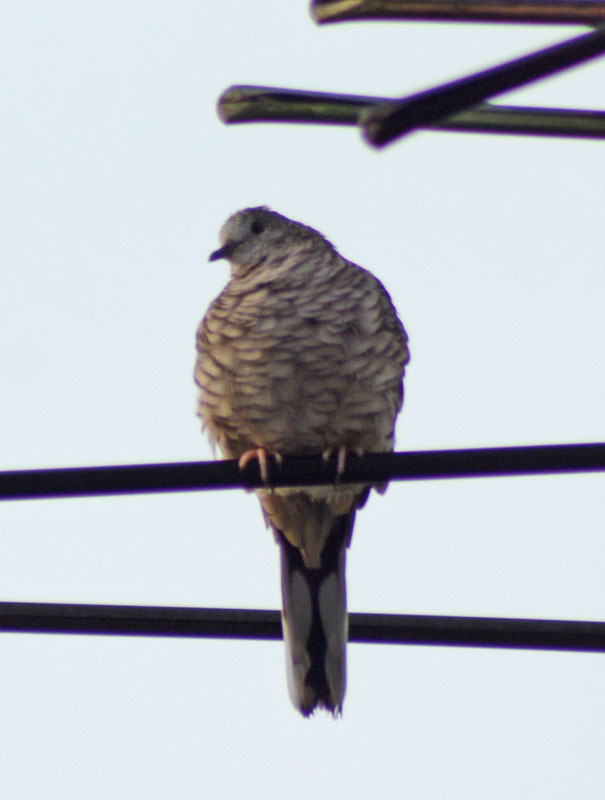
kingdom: Animalia
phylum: Chordata
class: Aves
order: Columbiformes
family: Columbidae
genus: Columbina
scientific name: Columbina inca
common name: Inca dove
